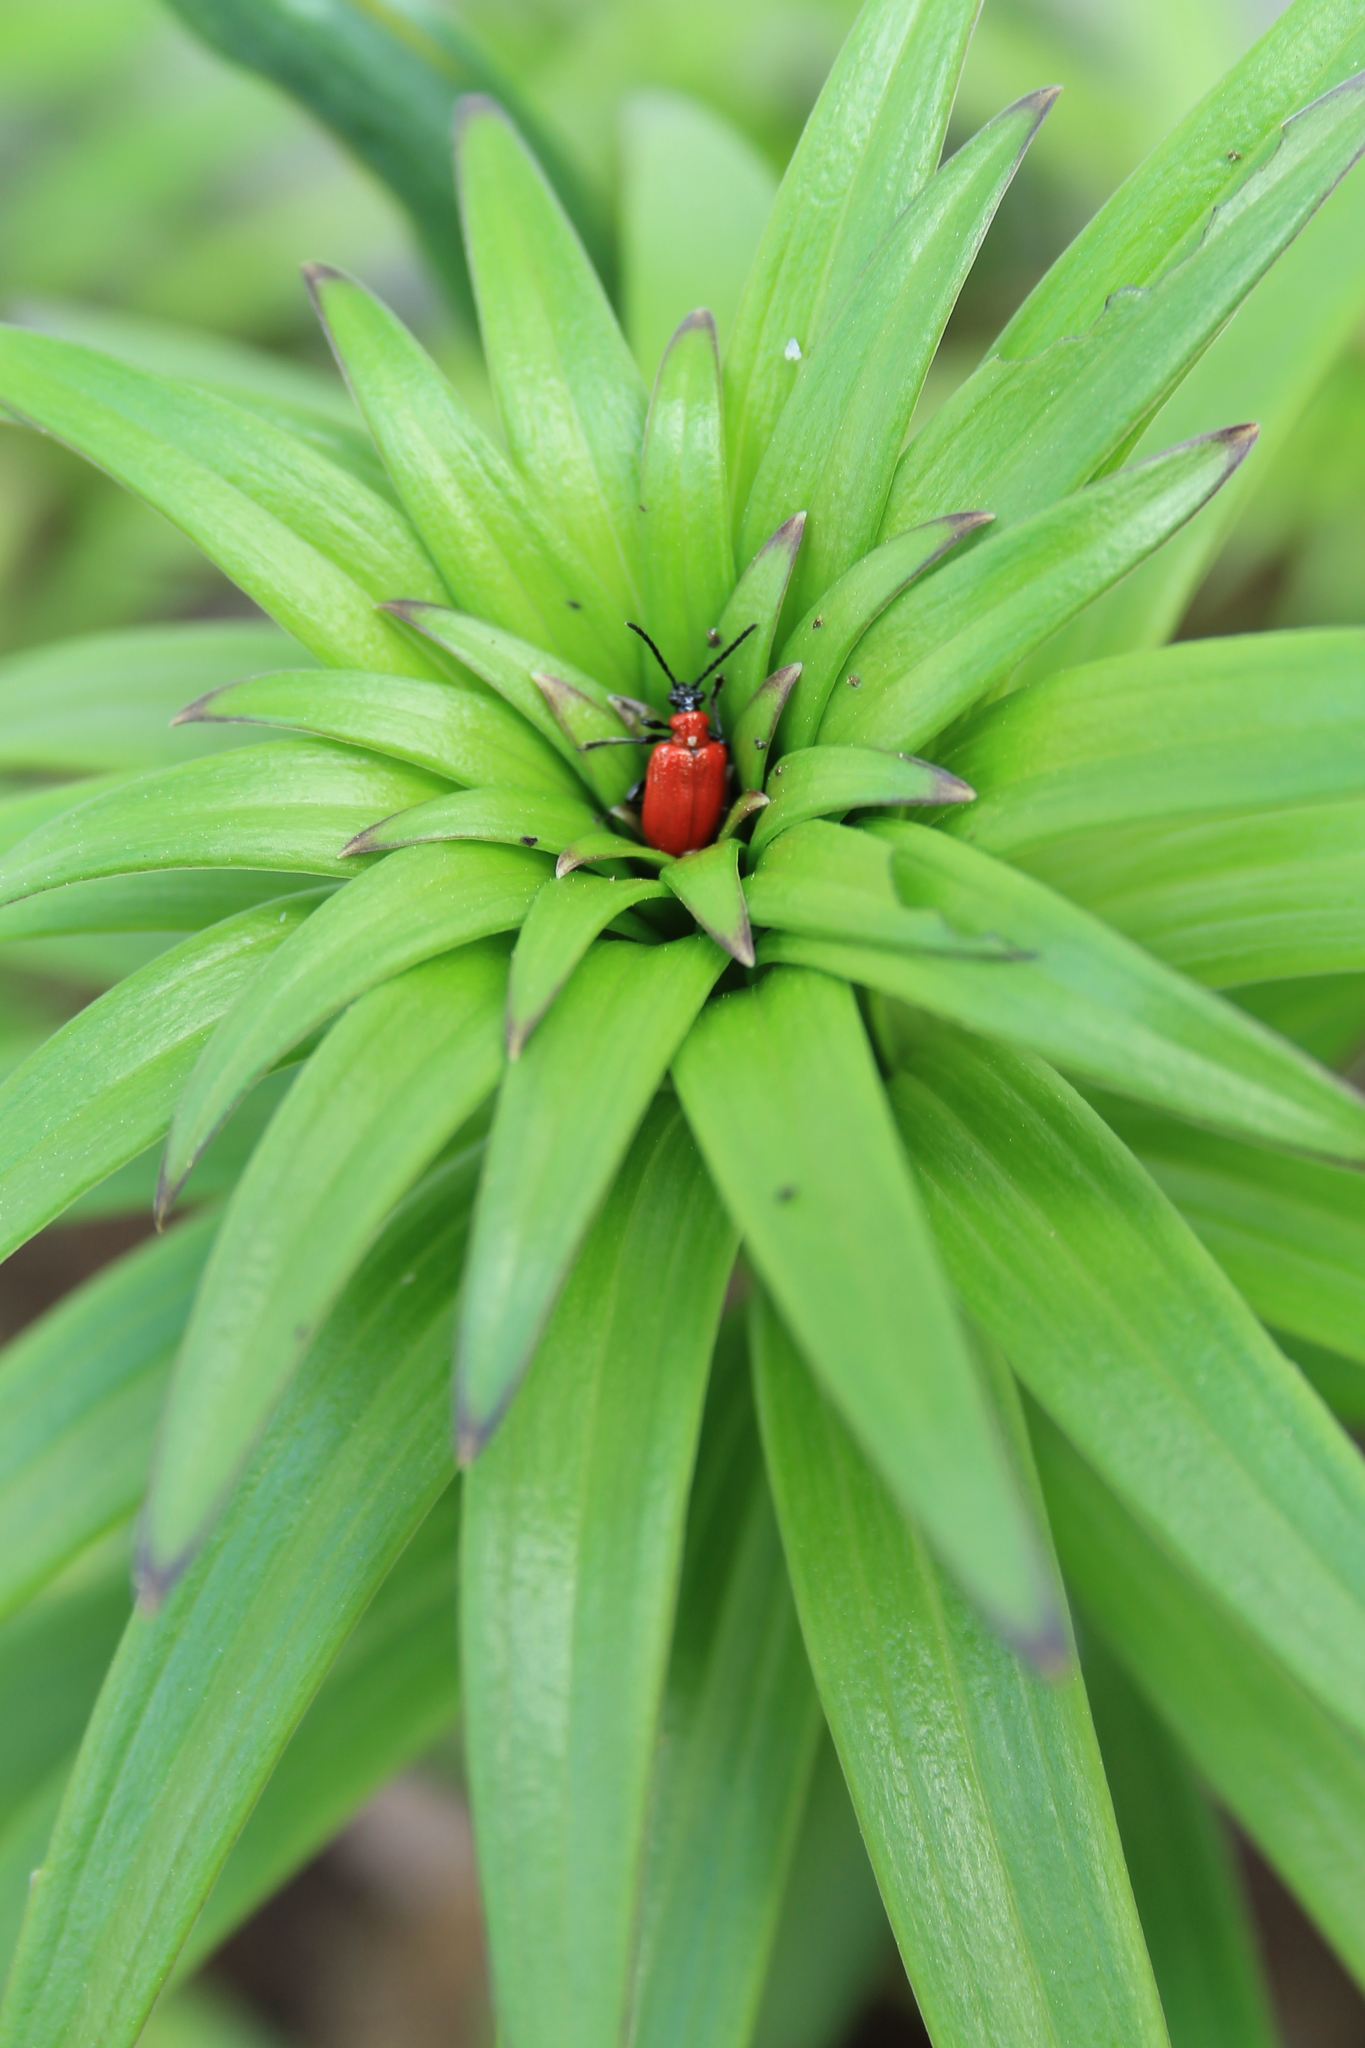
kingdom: Animalia
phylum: Arthropoda
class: Insecta
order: Coleoptera
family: Chrysomelidae
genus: Lilioceris
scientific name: Lilioceris lilii
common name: Lily beetle
